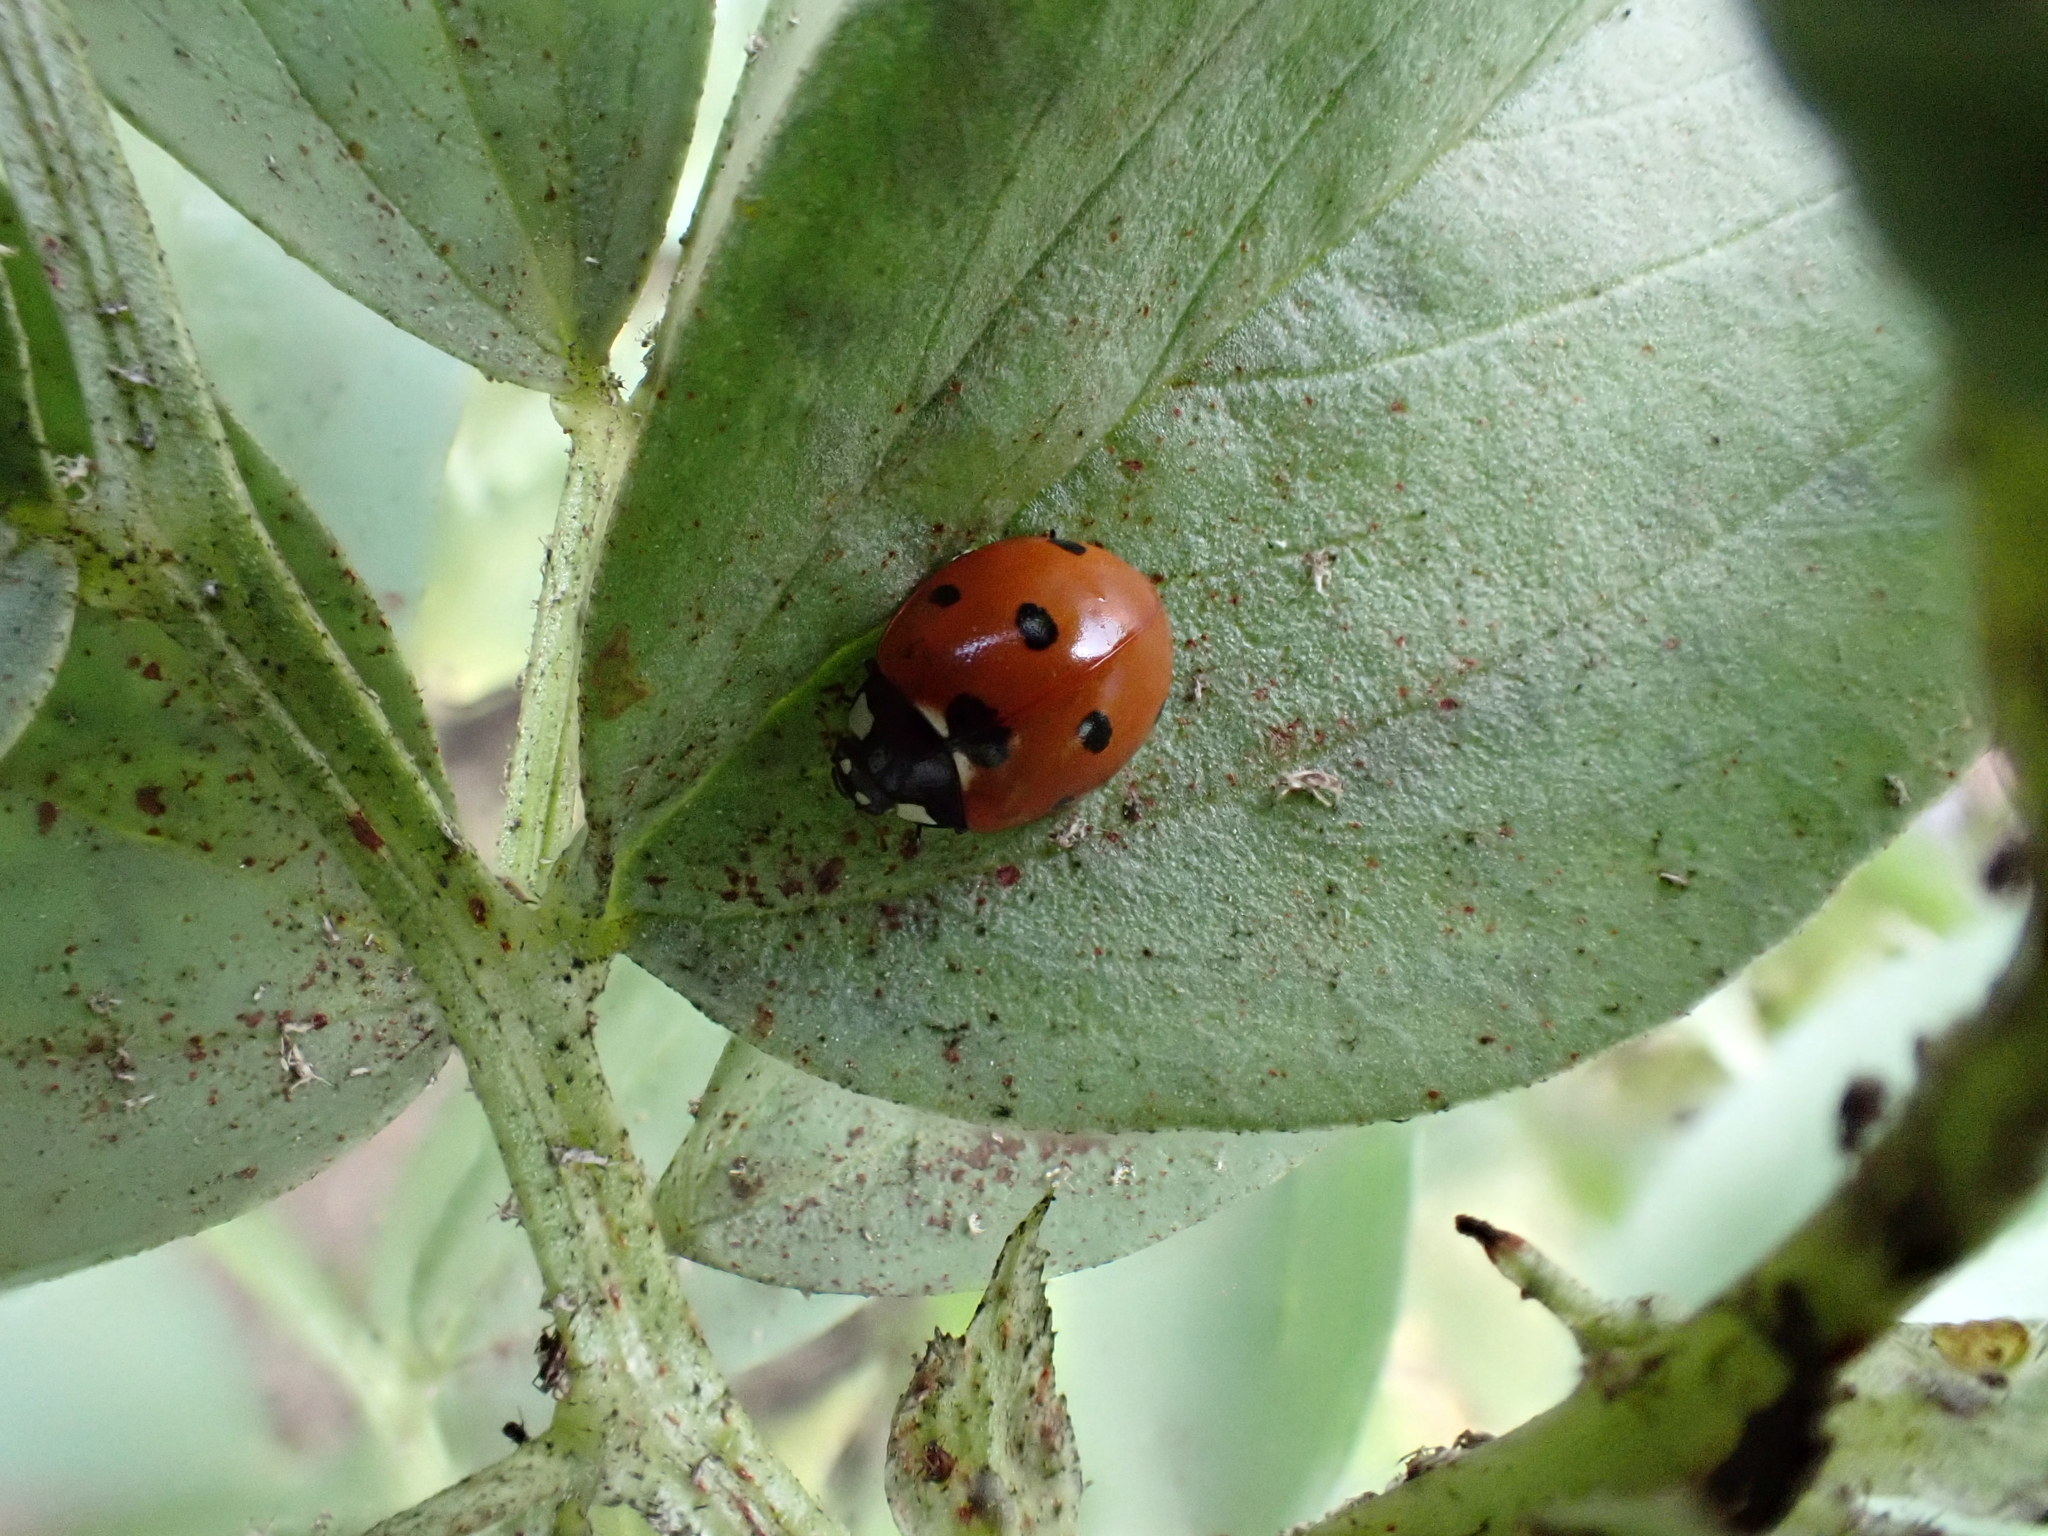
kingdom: Animalia
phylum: Arthropoda
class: Insecta
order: Coleoptera
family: Coccinellidae
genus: Coccinella
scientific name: Coccinella septempunctata
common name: Sevenspotted lady beetle
